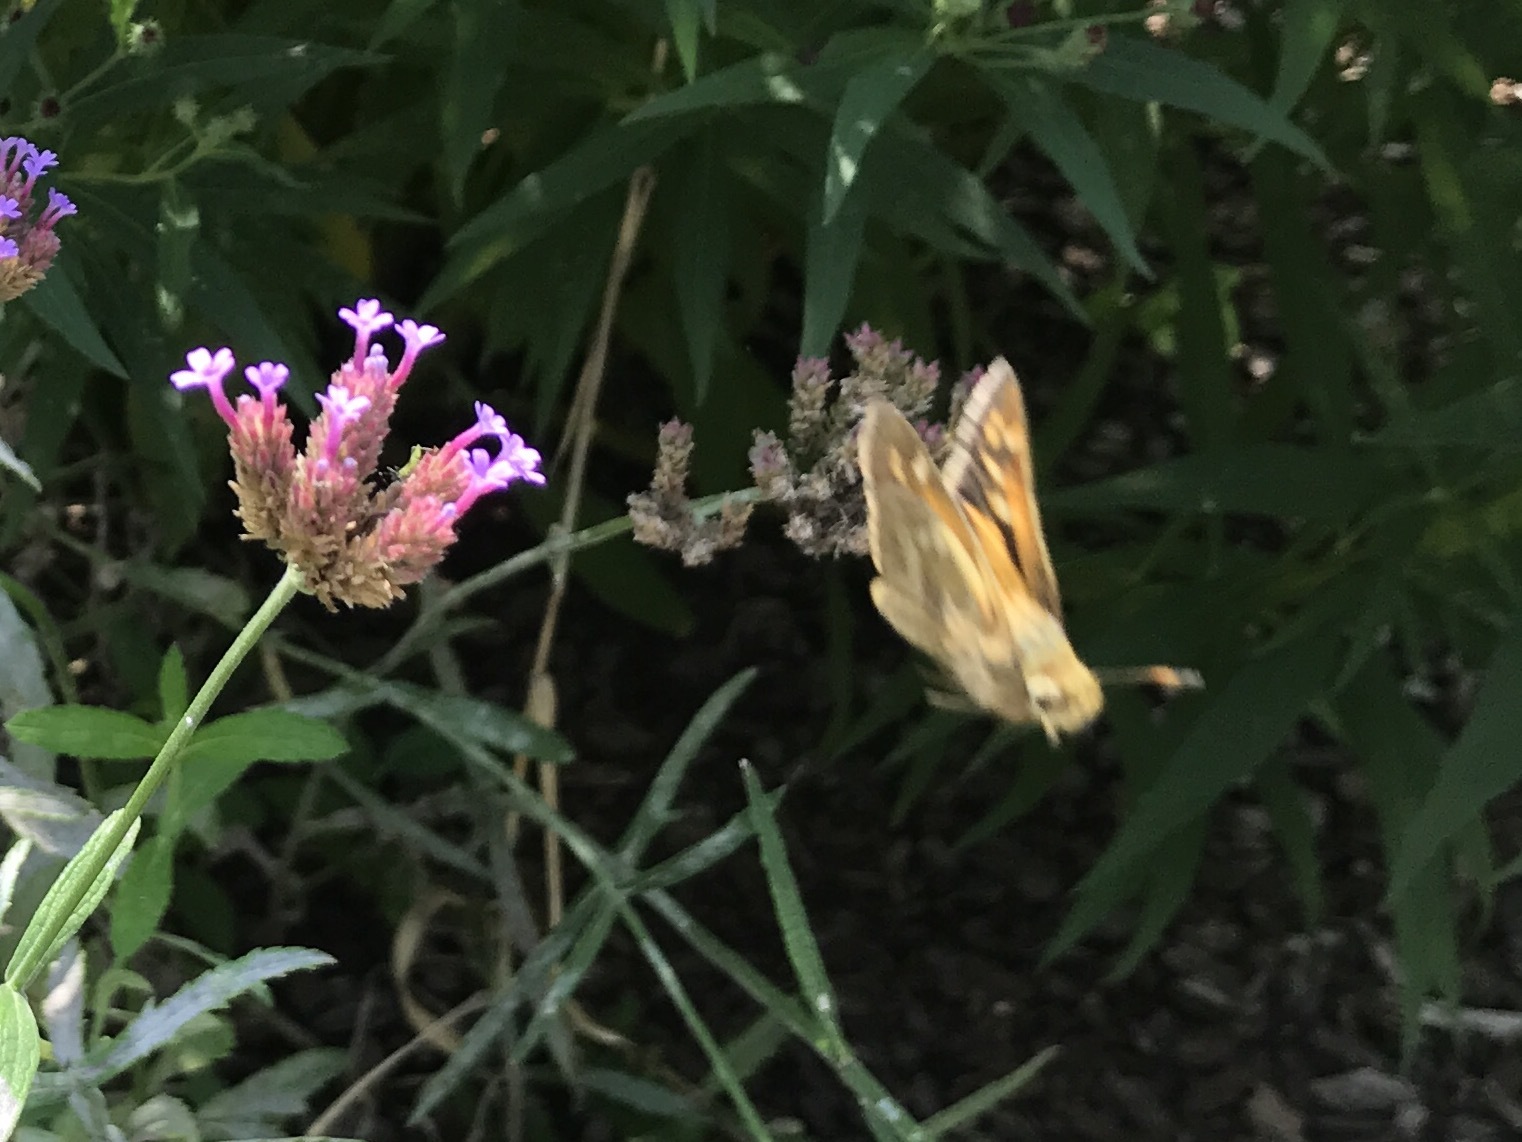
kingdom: Animalia
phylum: Arthropoda
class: Insecta
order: Lepidoptera
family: Hesperiidae
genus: Hylephila
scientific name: Hylephila phyleus
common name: Fiery skipper
